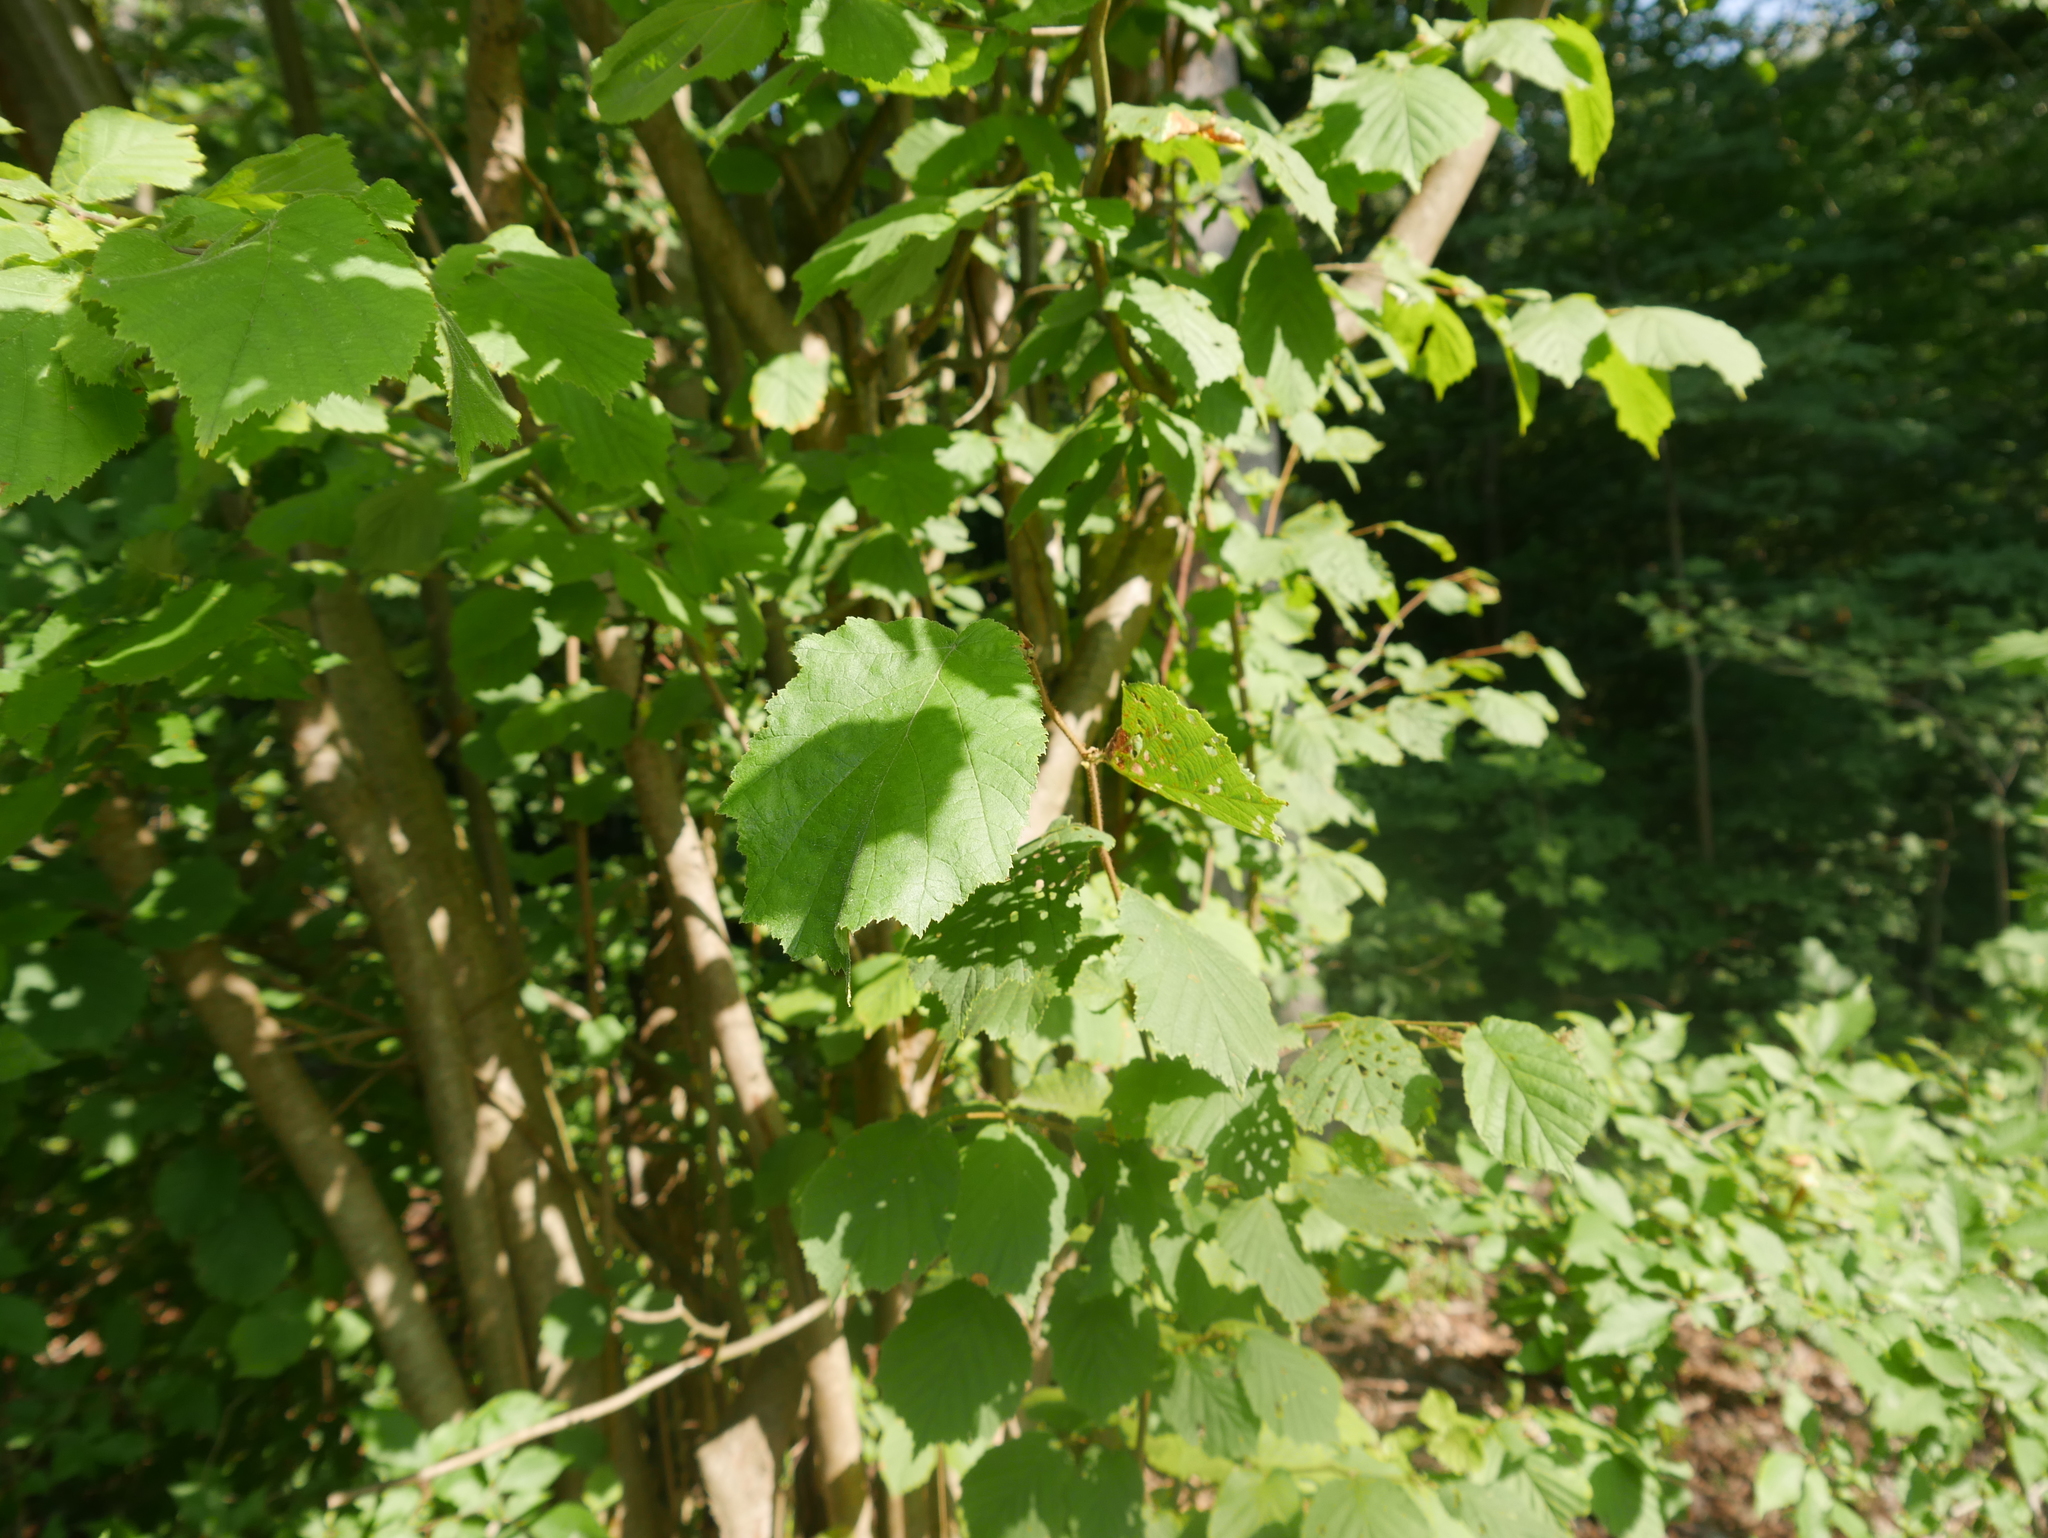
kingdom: Plantae
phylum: Tracheophyta
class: Magnoliopsida
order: Fagales
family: Betulaceae
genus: Corylus
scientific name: Corylus avellana
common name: European hazel
